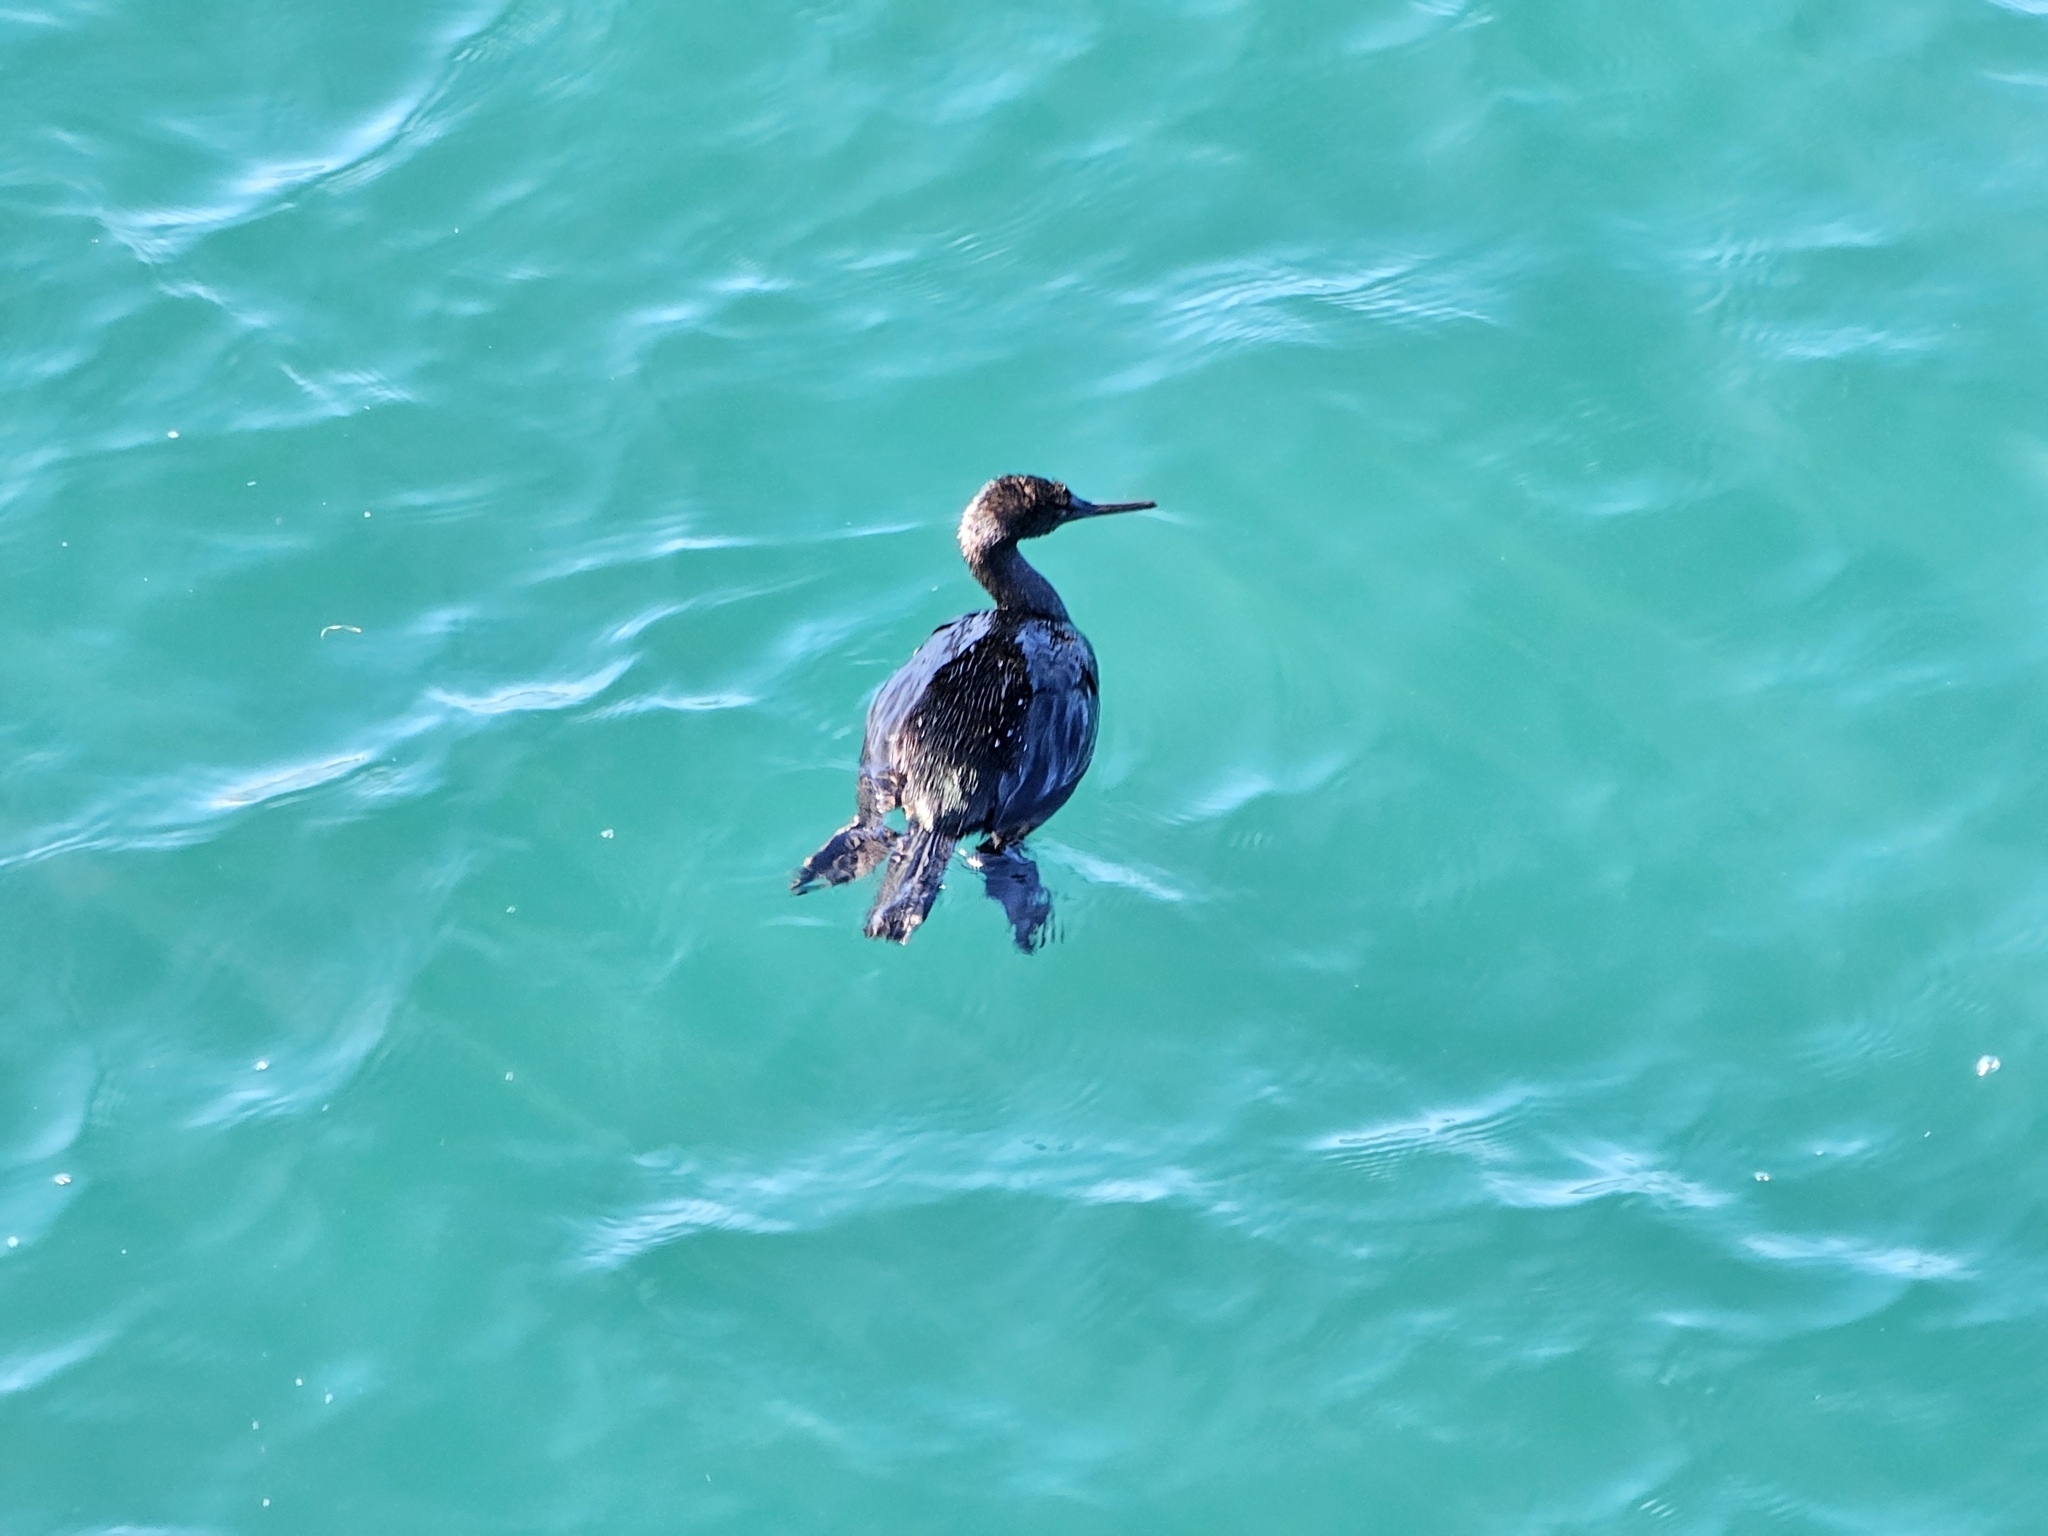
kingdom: Animalia
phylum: Chordata
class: Aves
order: Suliformes
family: Phalacrocoracidae
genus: Phalacrocorax
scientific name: Phalacrocorax pelagicus
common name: Pelagic cormorant
